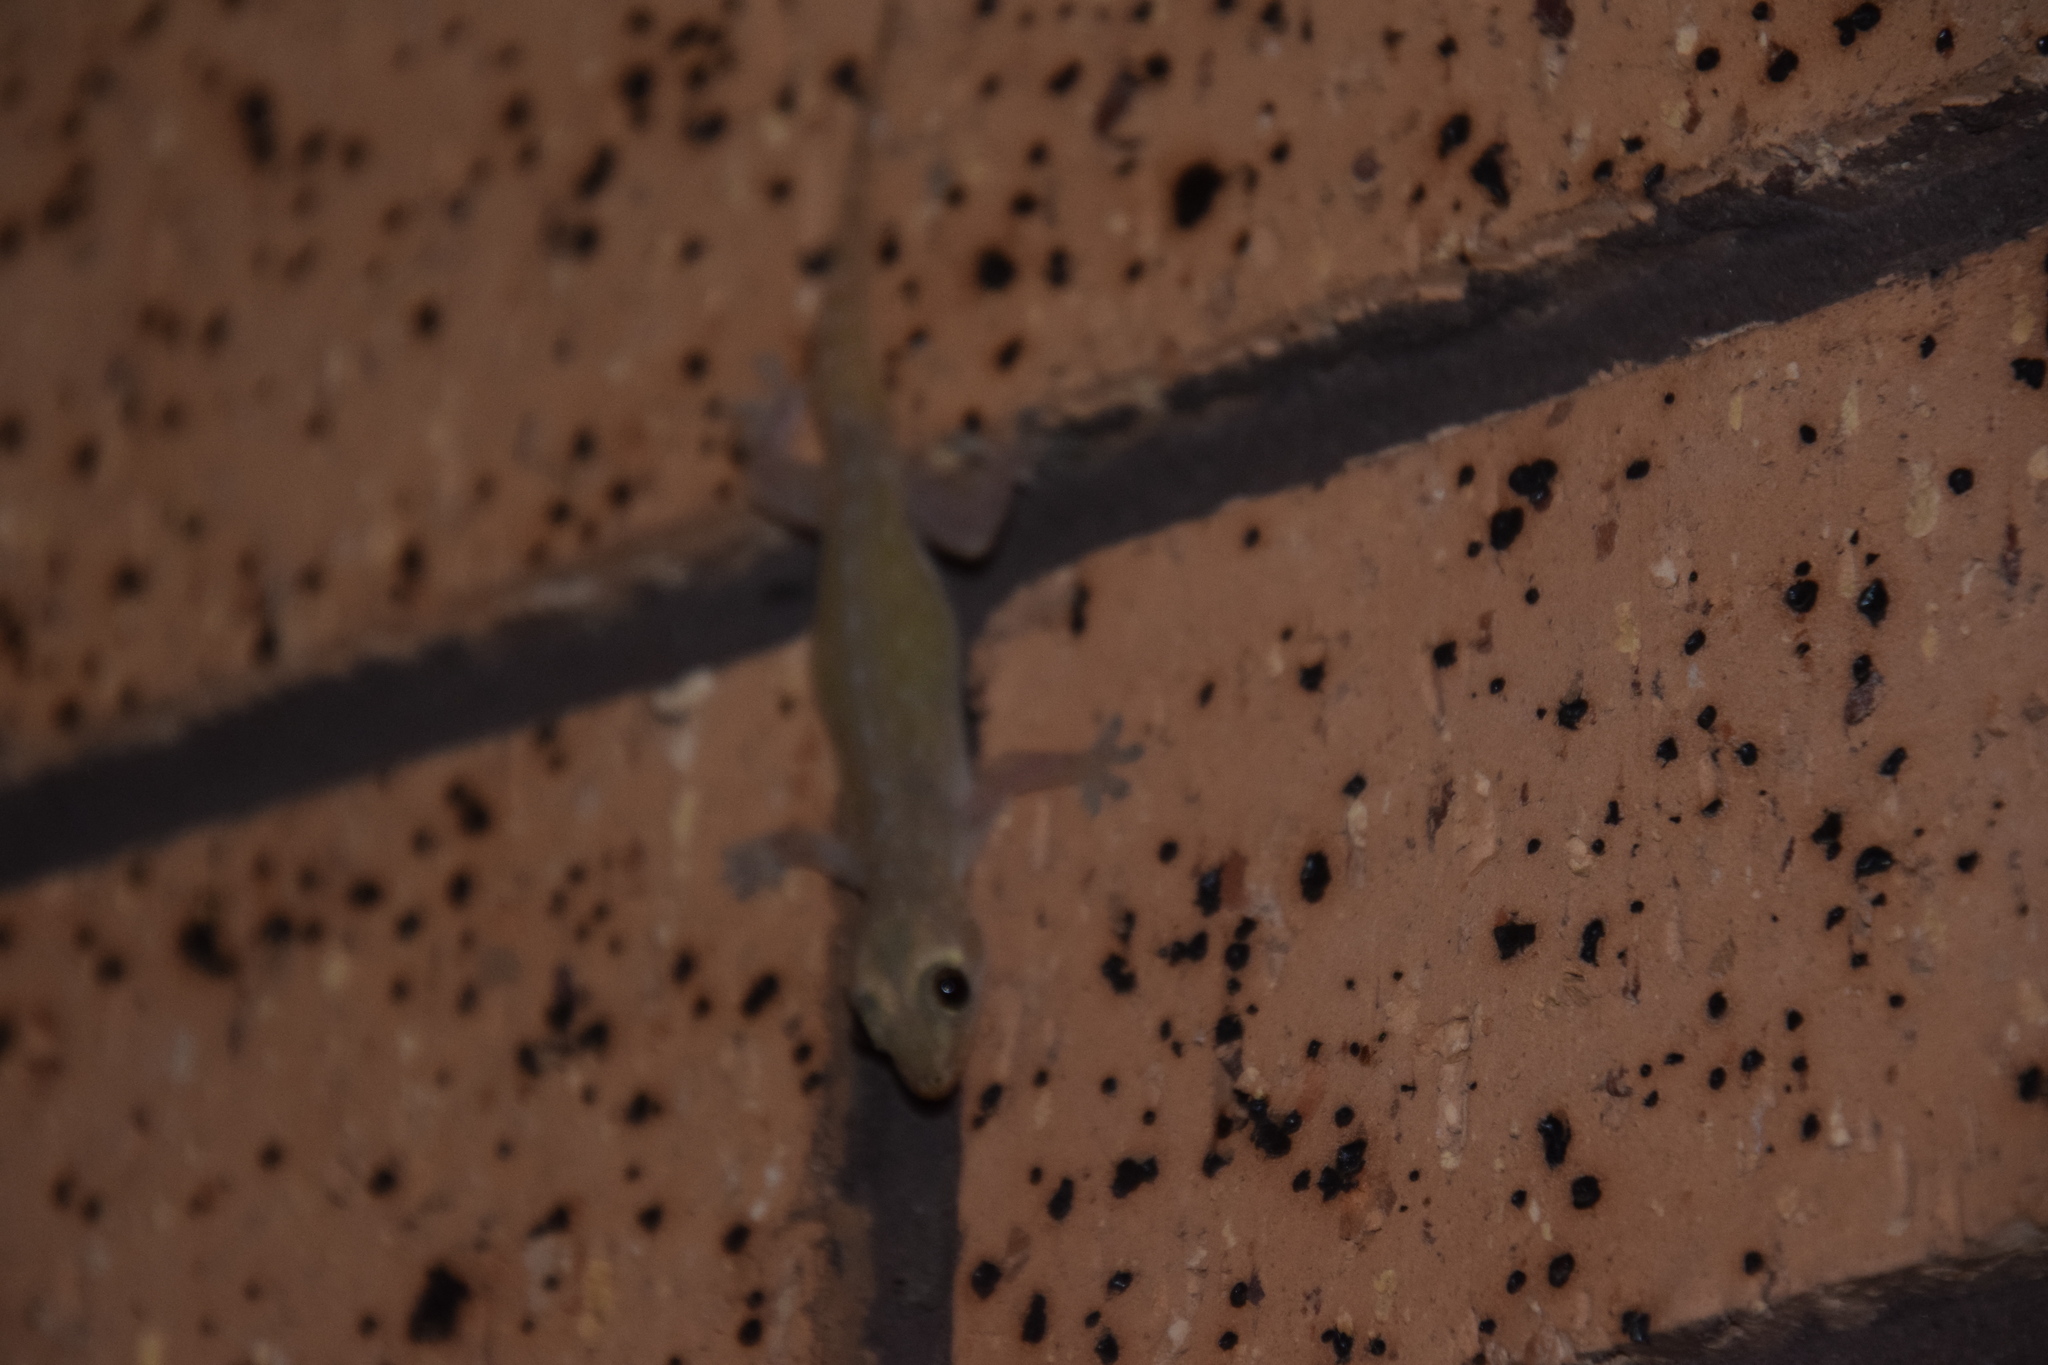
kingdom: Animalia
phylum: Chordata
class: Squamata
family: Gekkonidae
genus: Hemidactylus
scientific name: Hemidactylus frenatus
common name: Common house gecko
